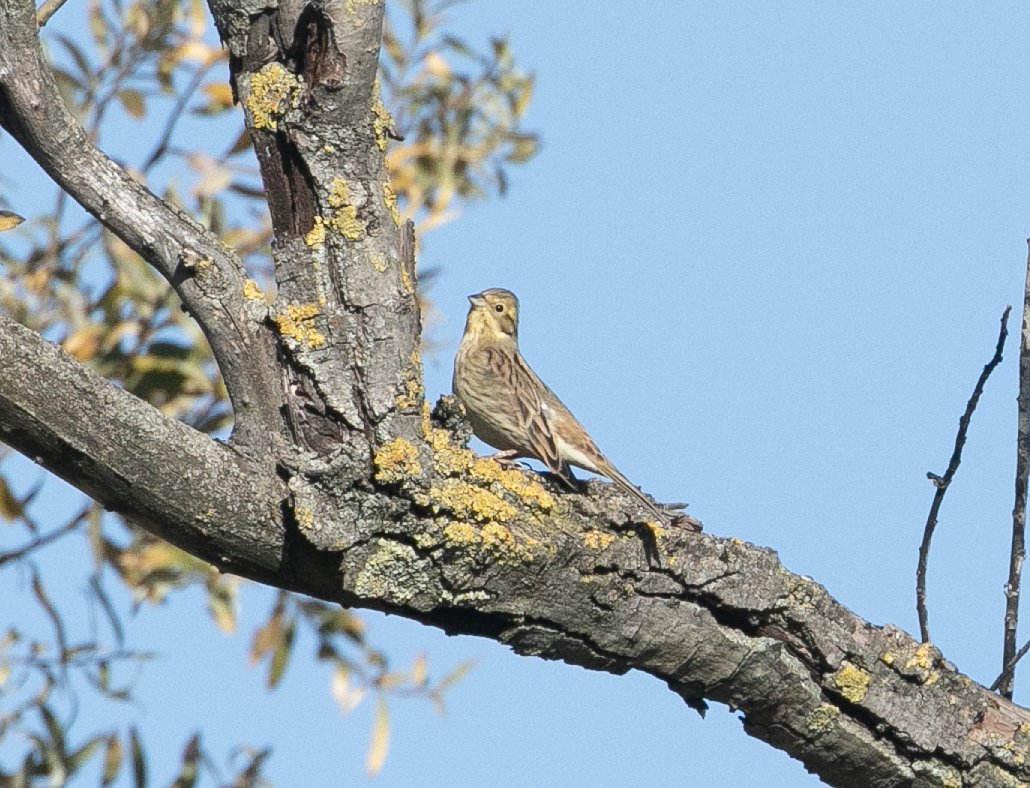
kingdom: Animalia
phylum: Chordata
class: Aves
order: Passeriformes
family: Emberizidae
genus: Emberiza
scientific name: Emberiza citrinella
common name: Yellowhammer
